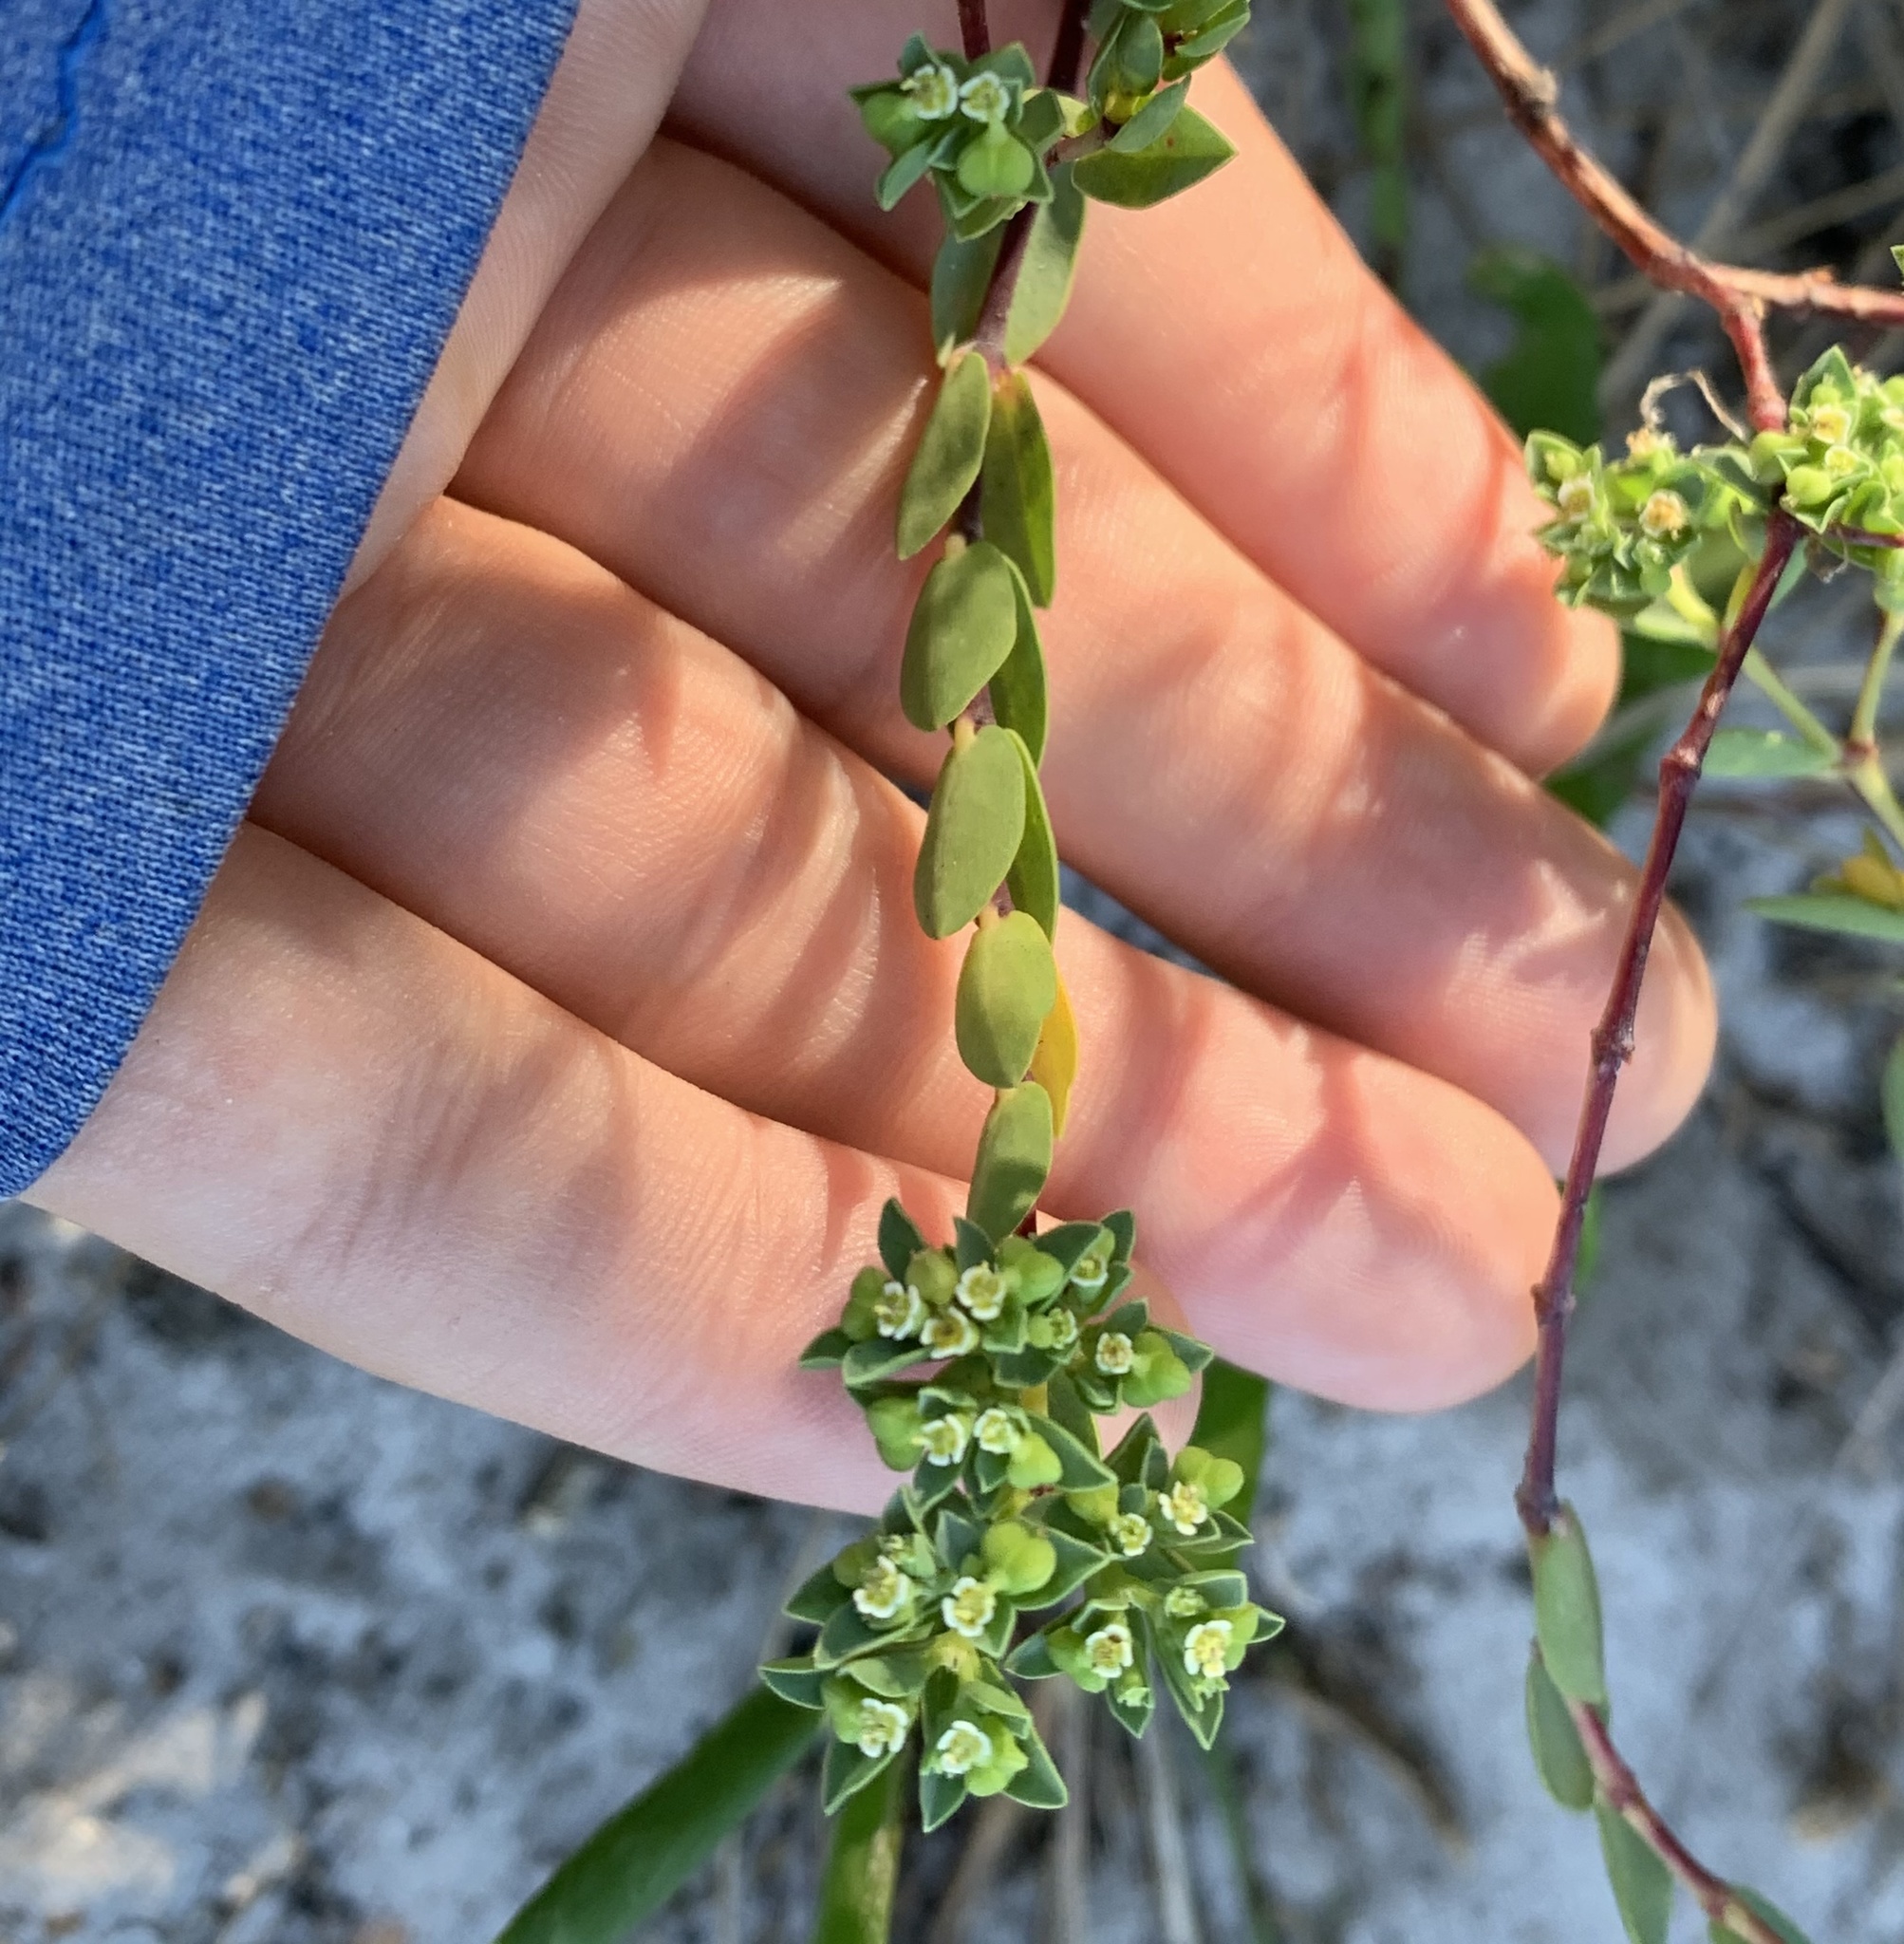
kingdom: Plantae
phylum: Tracheophyta
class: Magnoliopsida
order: Malpighiales
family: Euphorbiaceae
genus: Euphorbia
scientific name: Euphorbia mesembryanthemifolia
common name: Coastal beach sandmat
